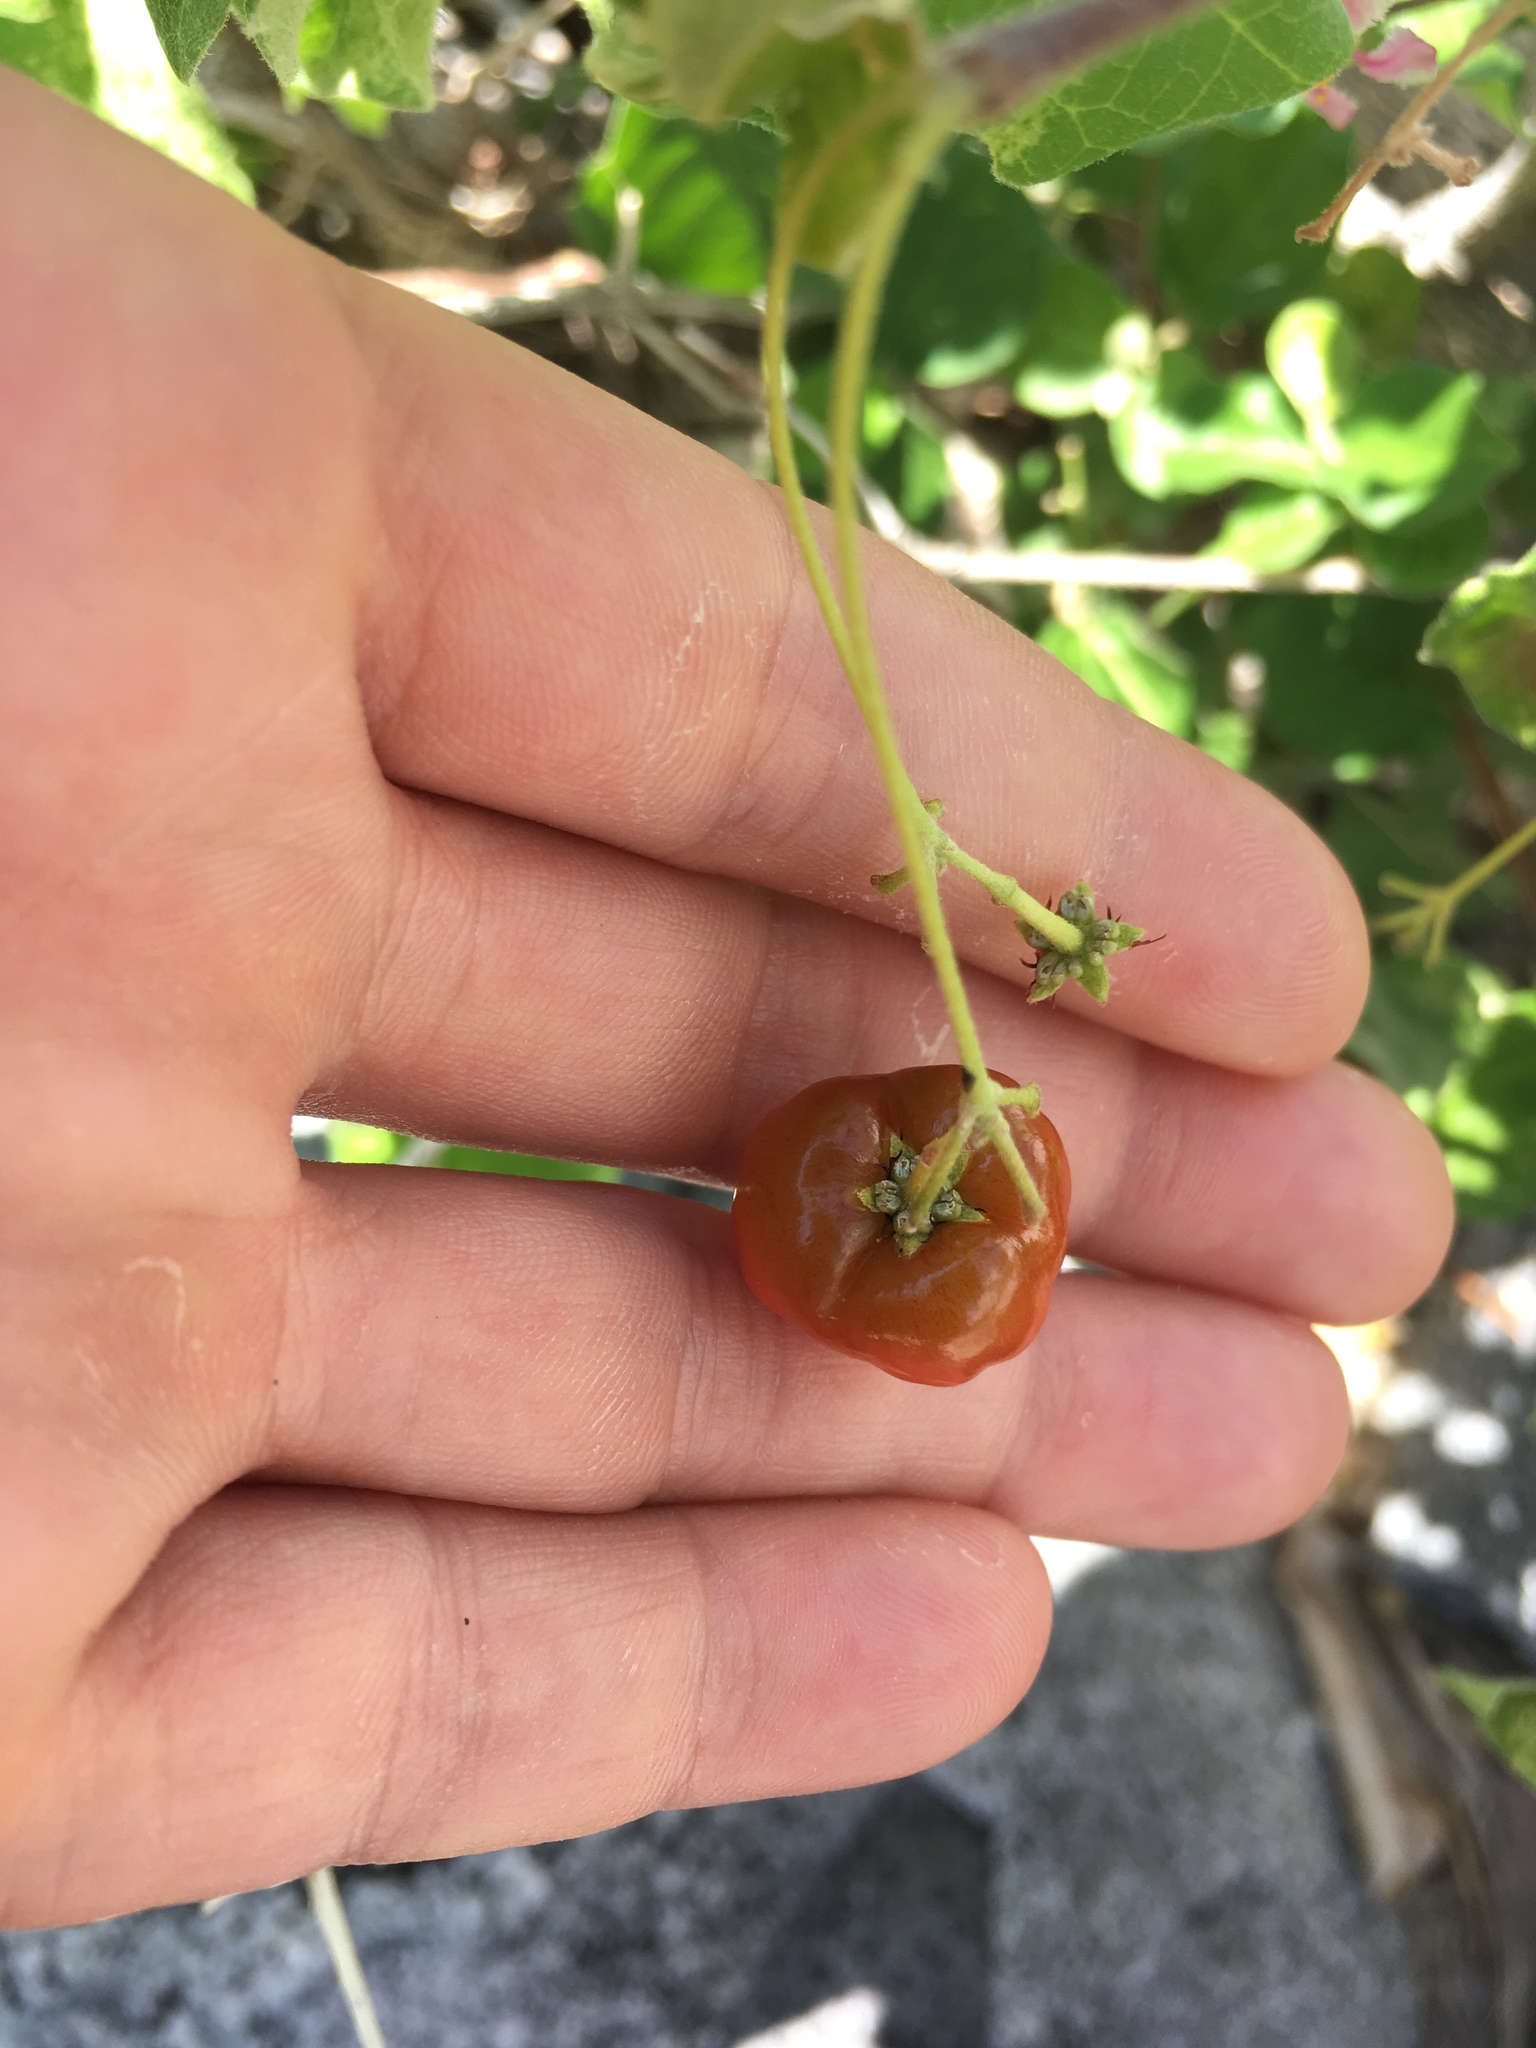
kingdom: Plantae
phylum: Tracheophyta
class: Magnoliopsida
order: Malpighiales
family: Malpighiaceae
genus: Malpighia
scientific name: Malpighia diversifolia
